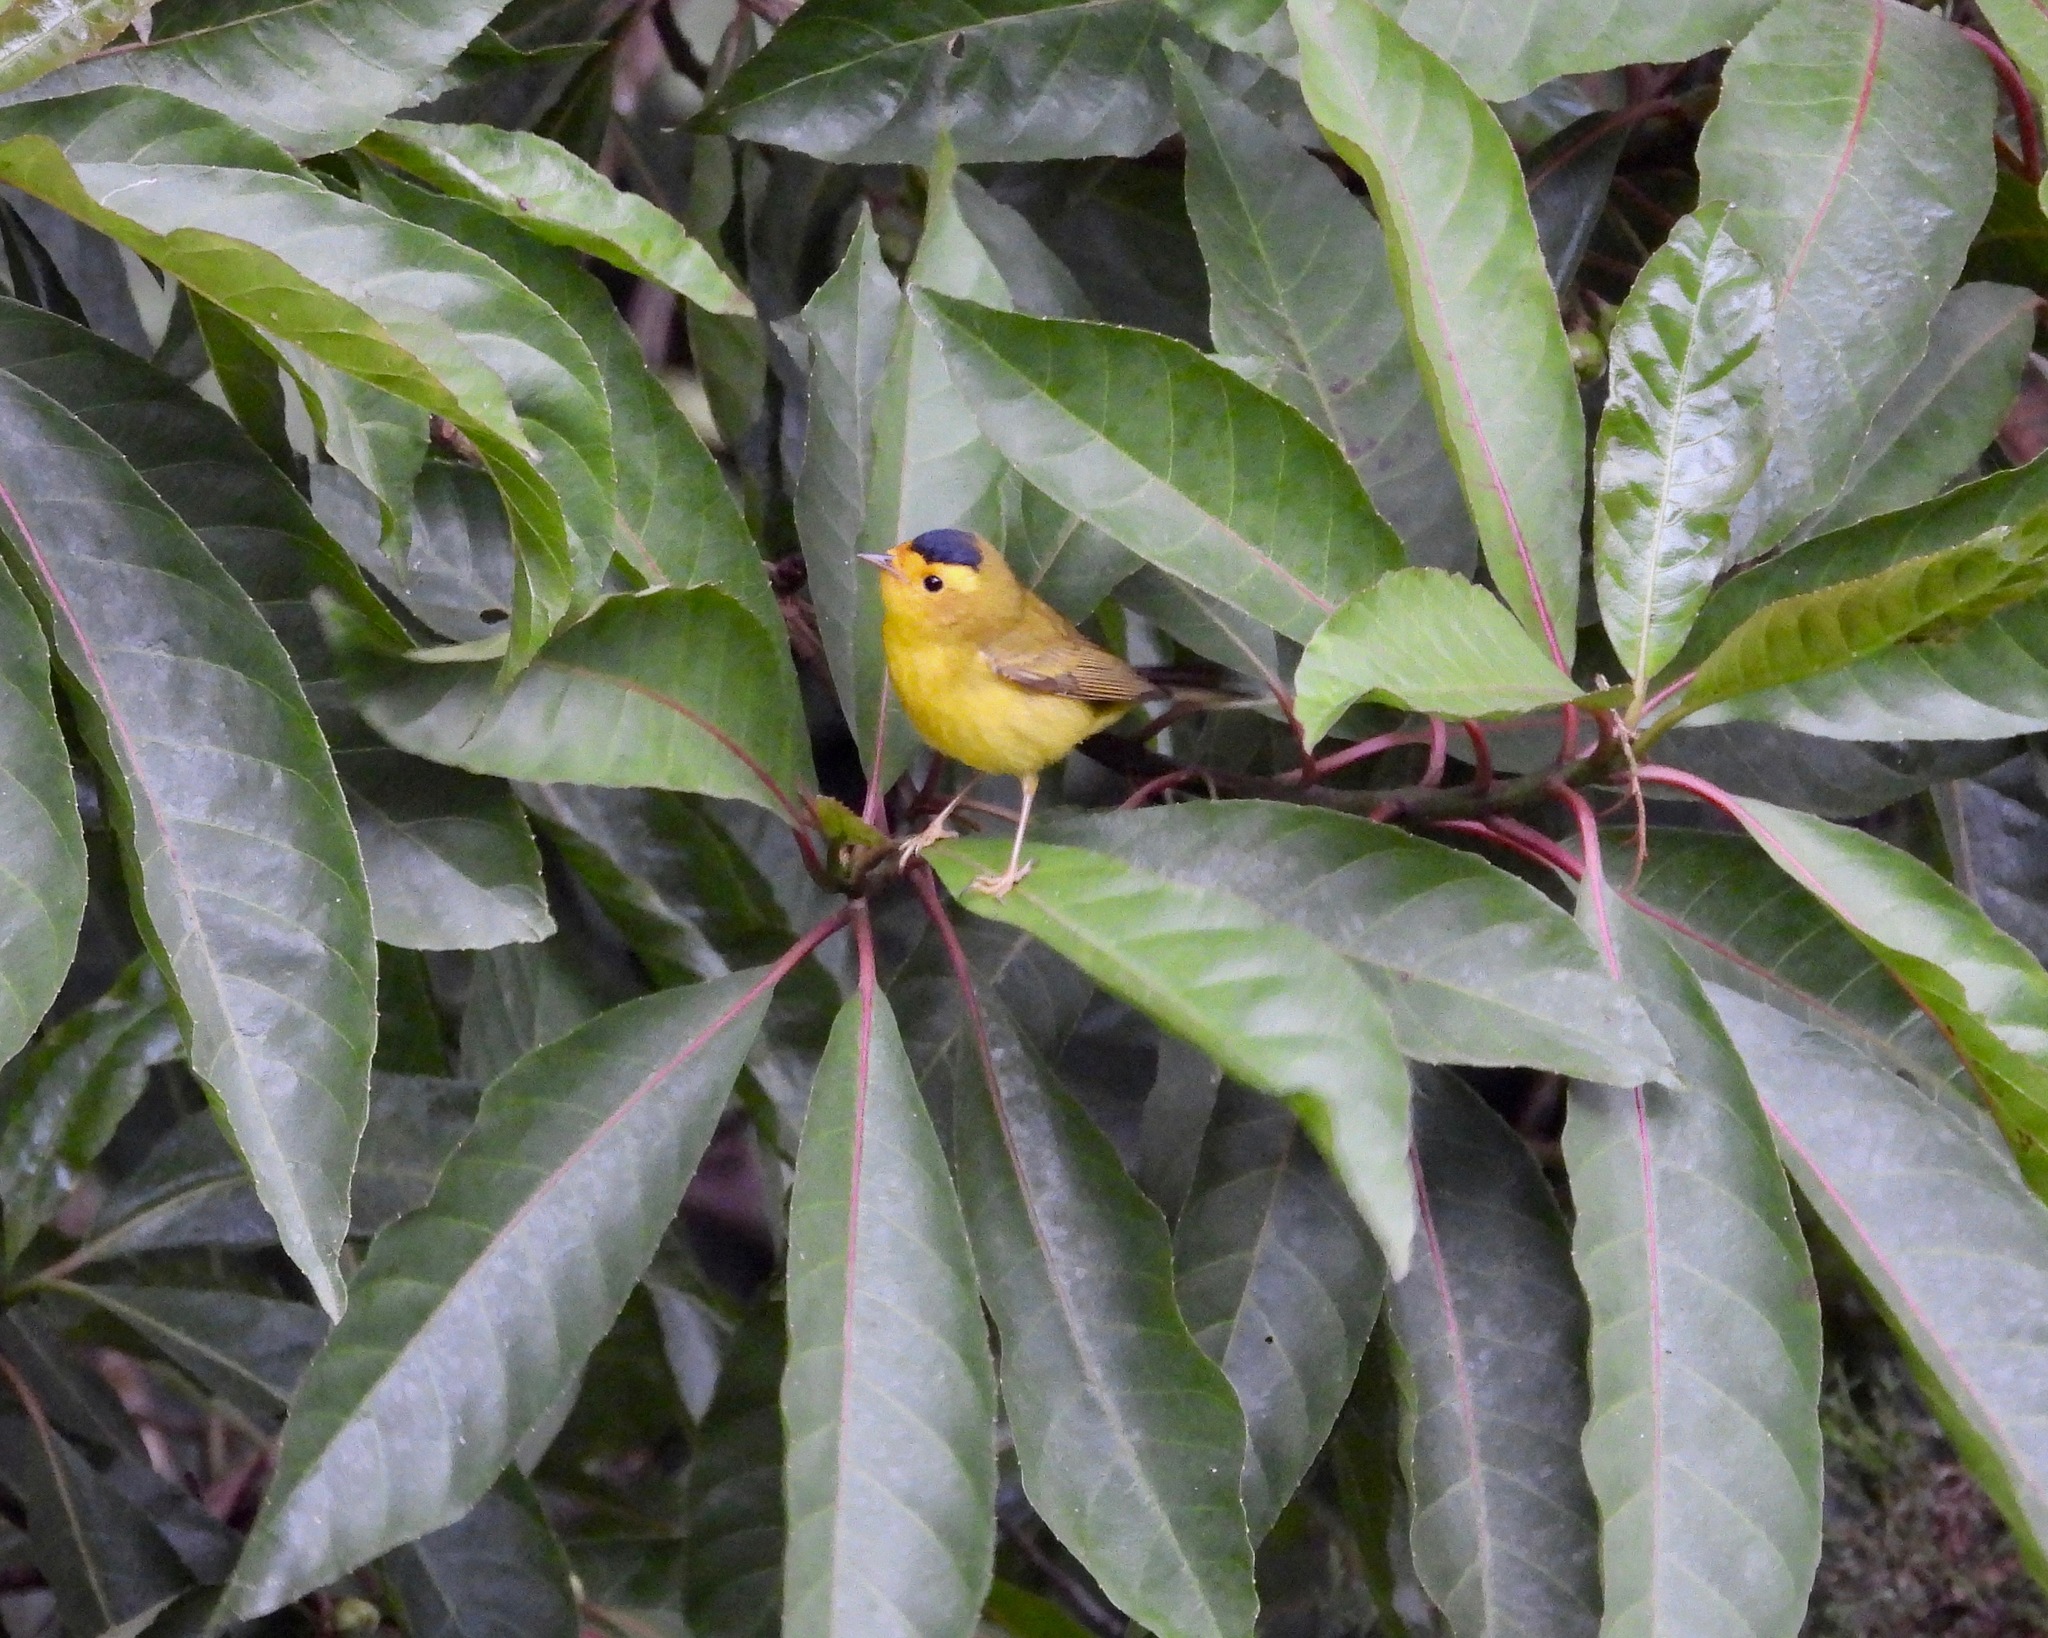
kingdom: Animalia
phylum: Chordata
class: Aves
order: Passeriformes
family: Parulidae
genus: Cardellina
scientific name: Cardellina pusilla
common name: Wilson's warbler
